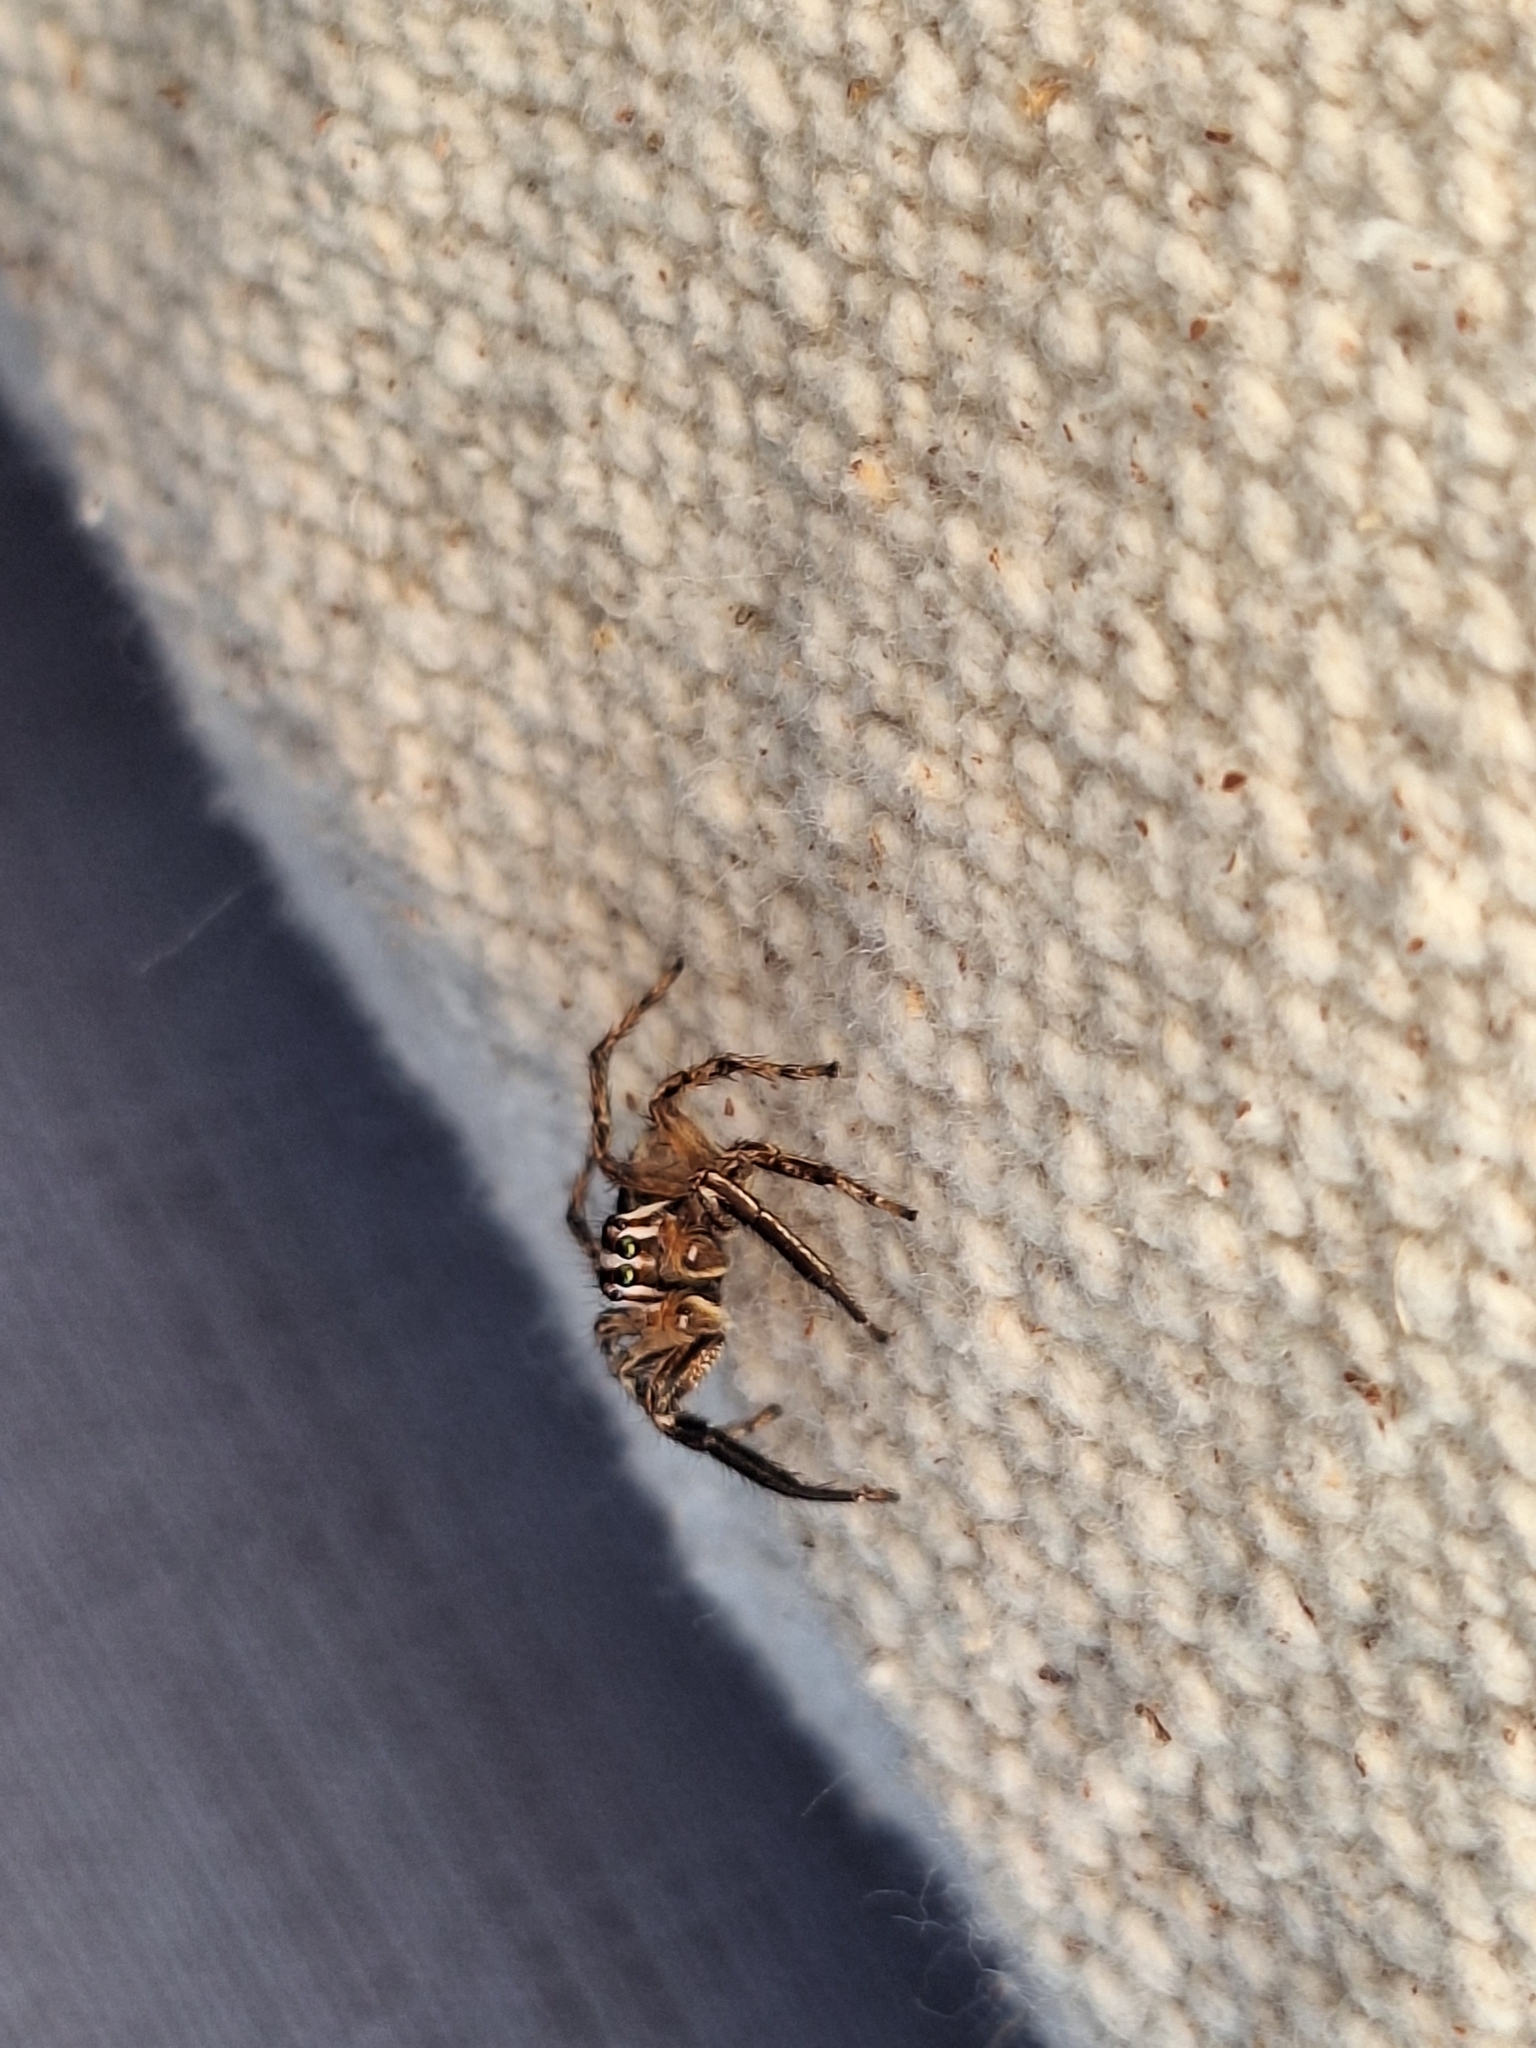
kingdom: Animalia
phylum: Arthropoda
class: Arachnida
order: Araneae
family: Salticidae
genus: Plexippus
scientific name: Plexippus paykulli
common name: Pantropical jumper
